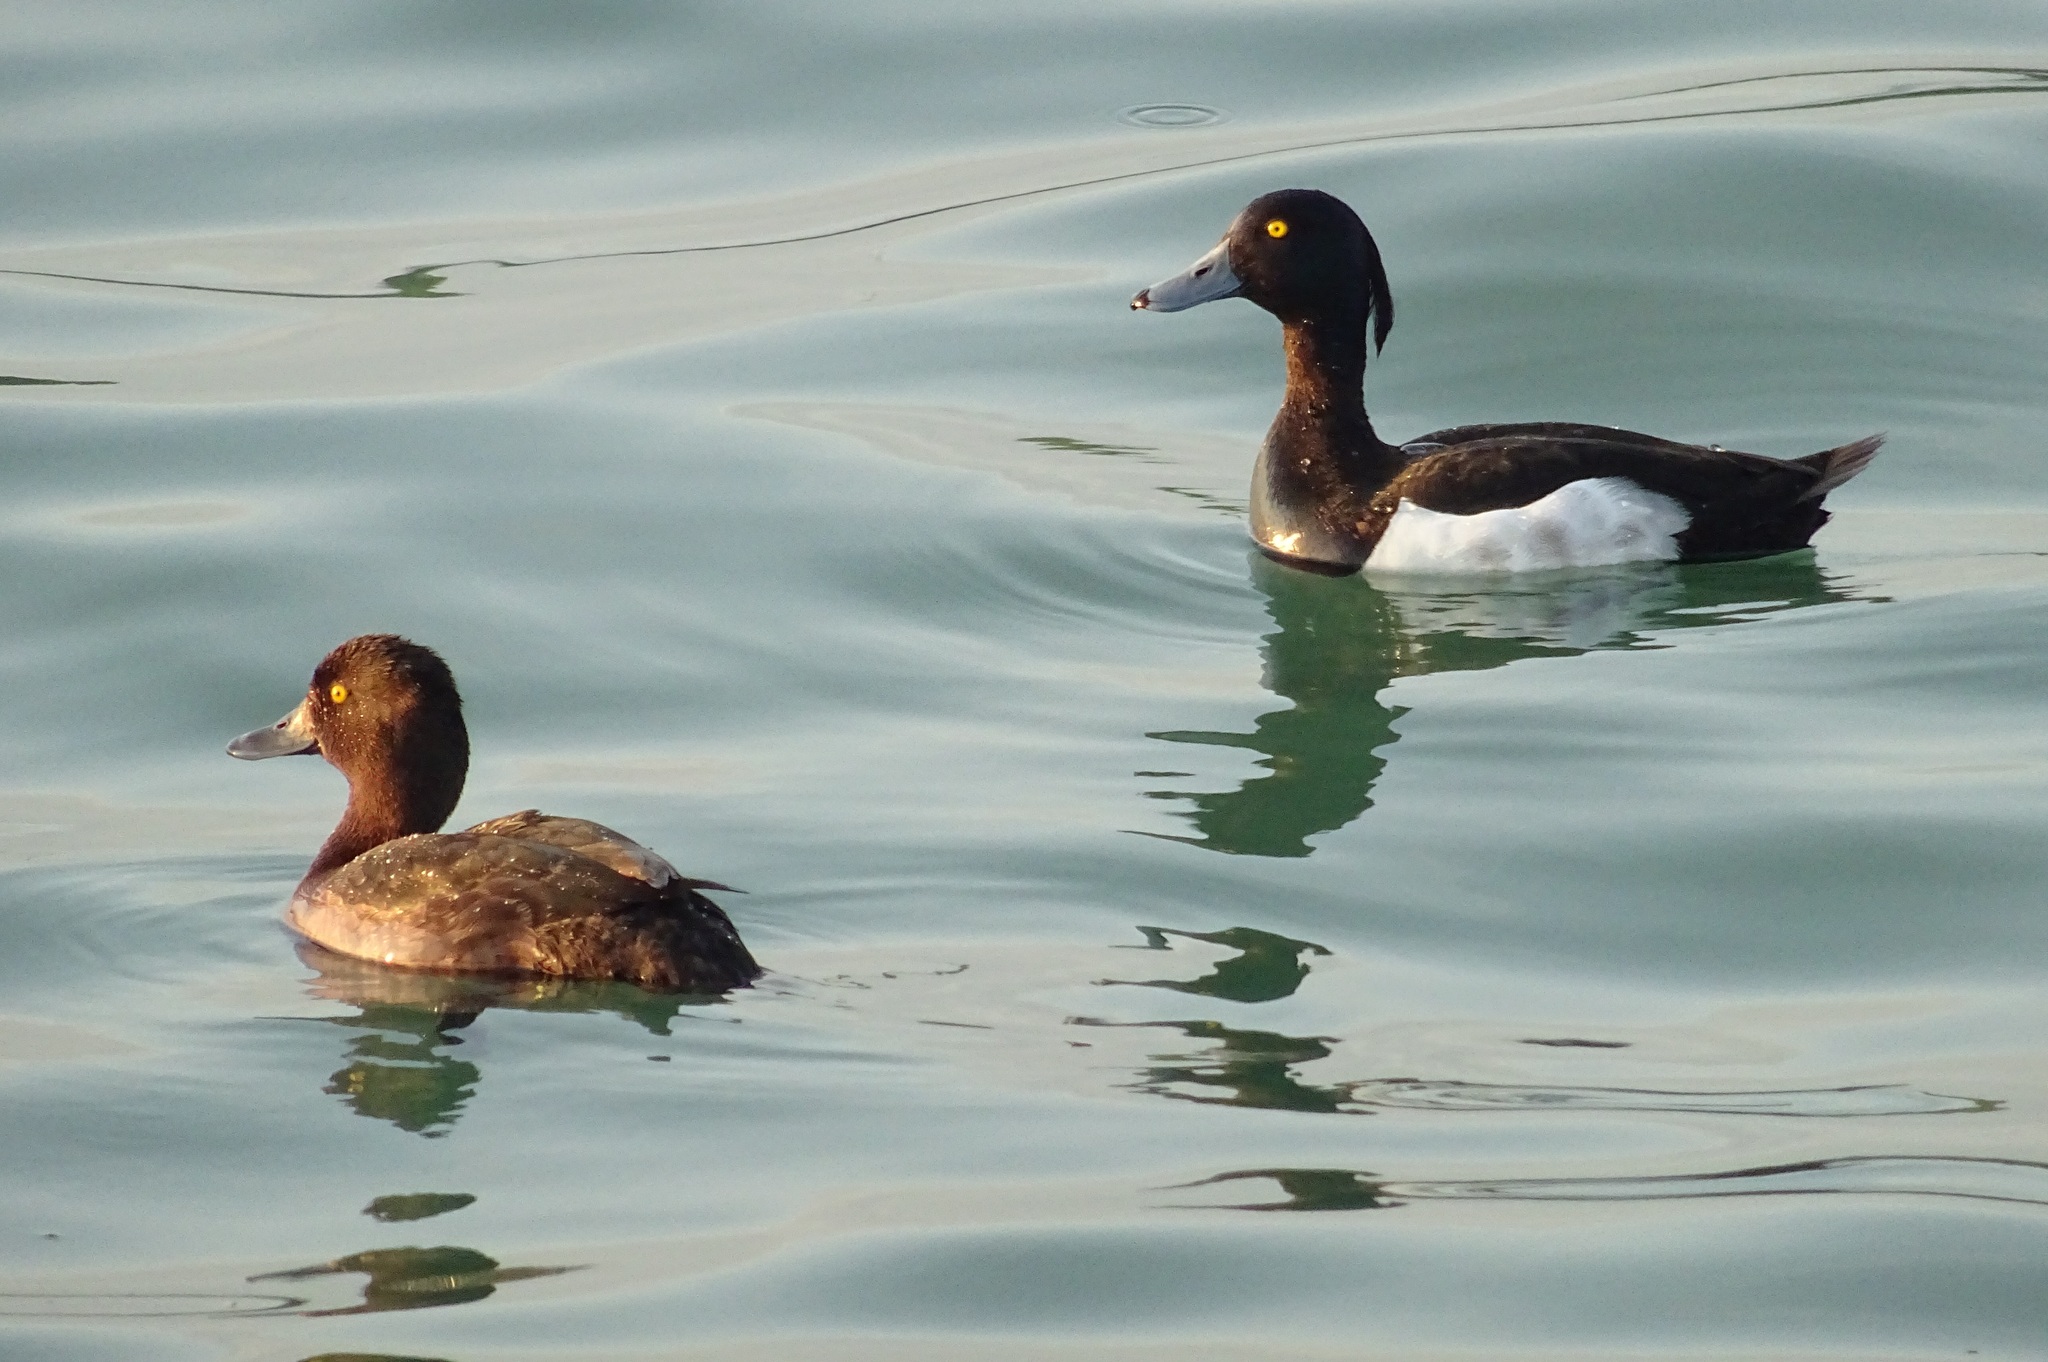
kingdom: Animalia
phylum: Chordata
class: Aves
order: Anseriformes
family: Anatidae
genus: Aythya
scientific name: Aythya fuligula
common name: Tufted duck
